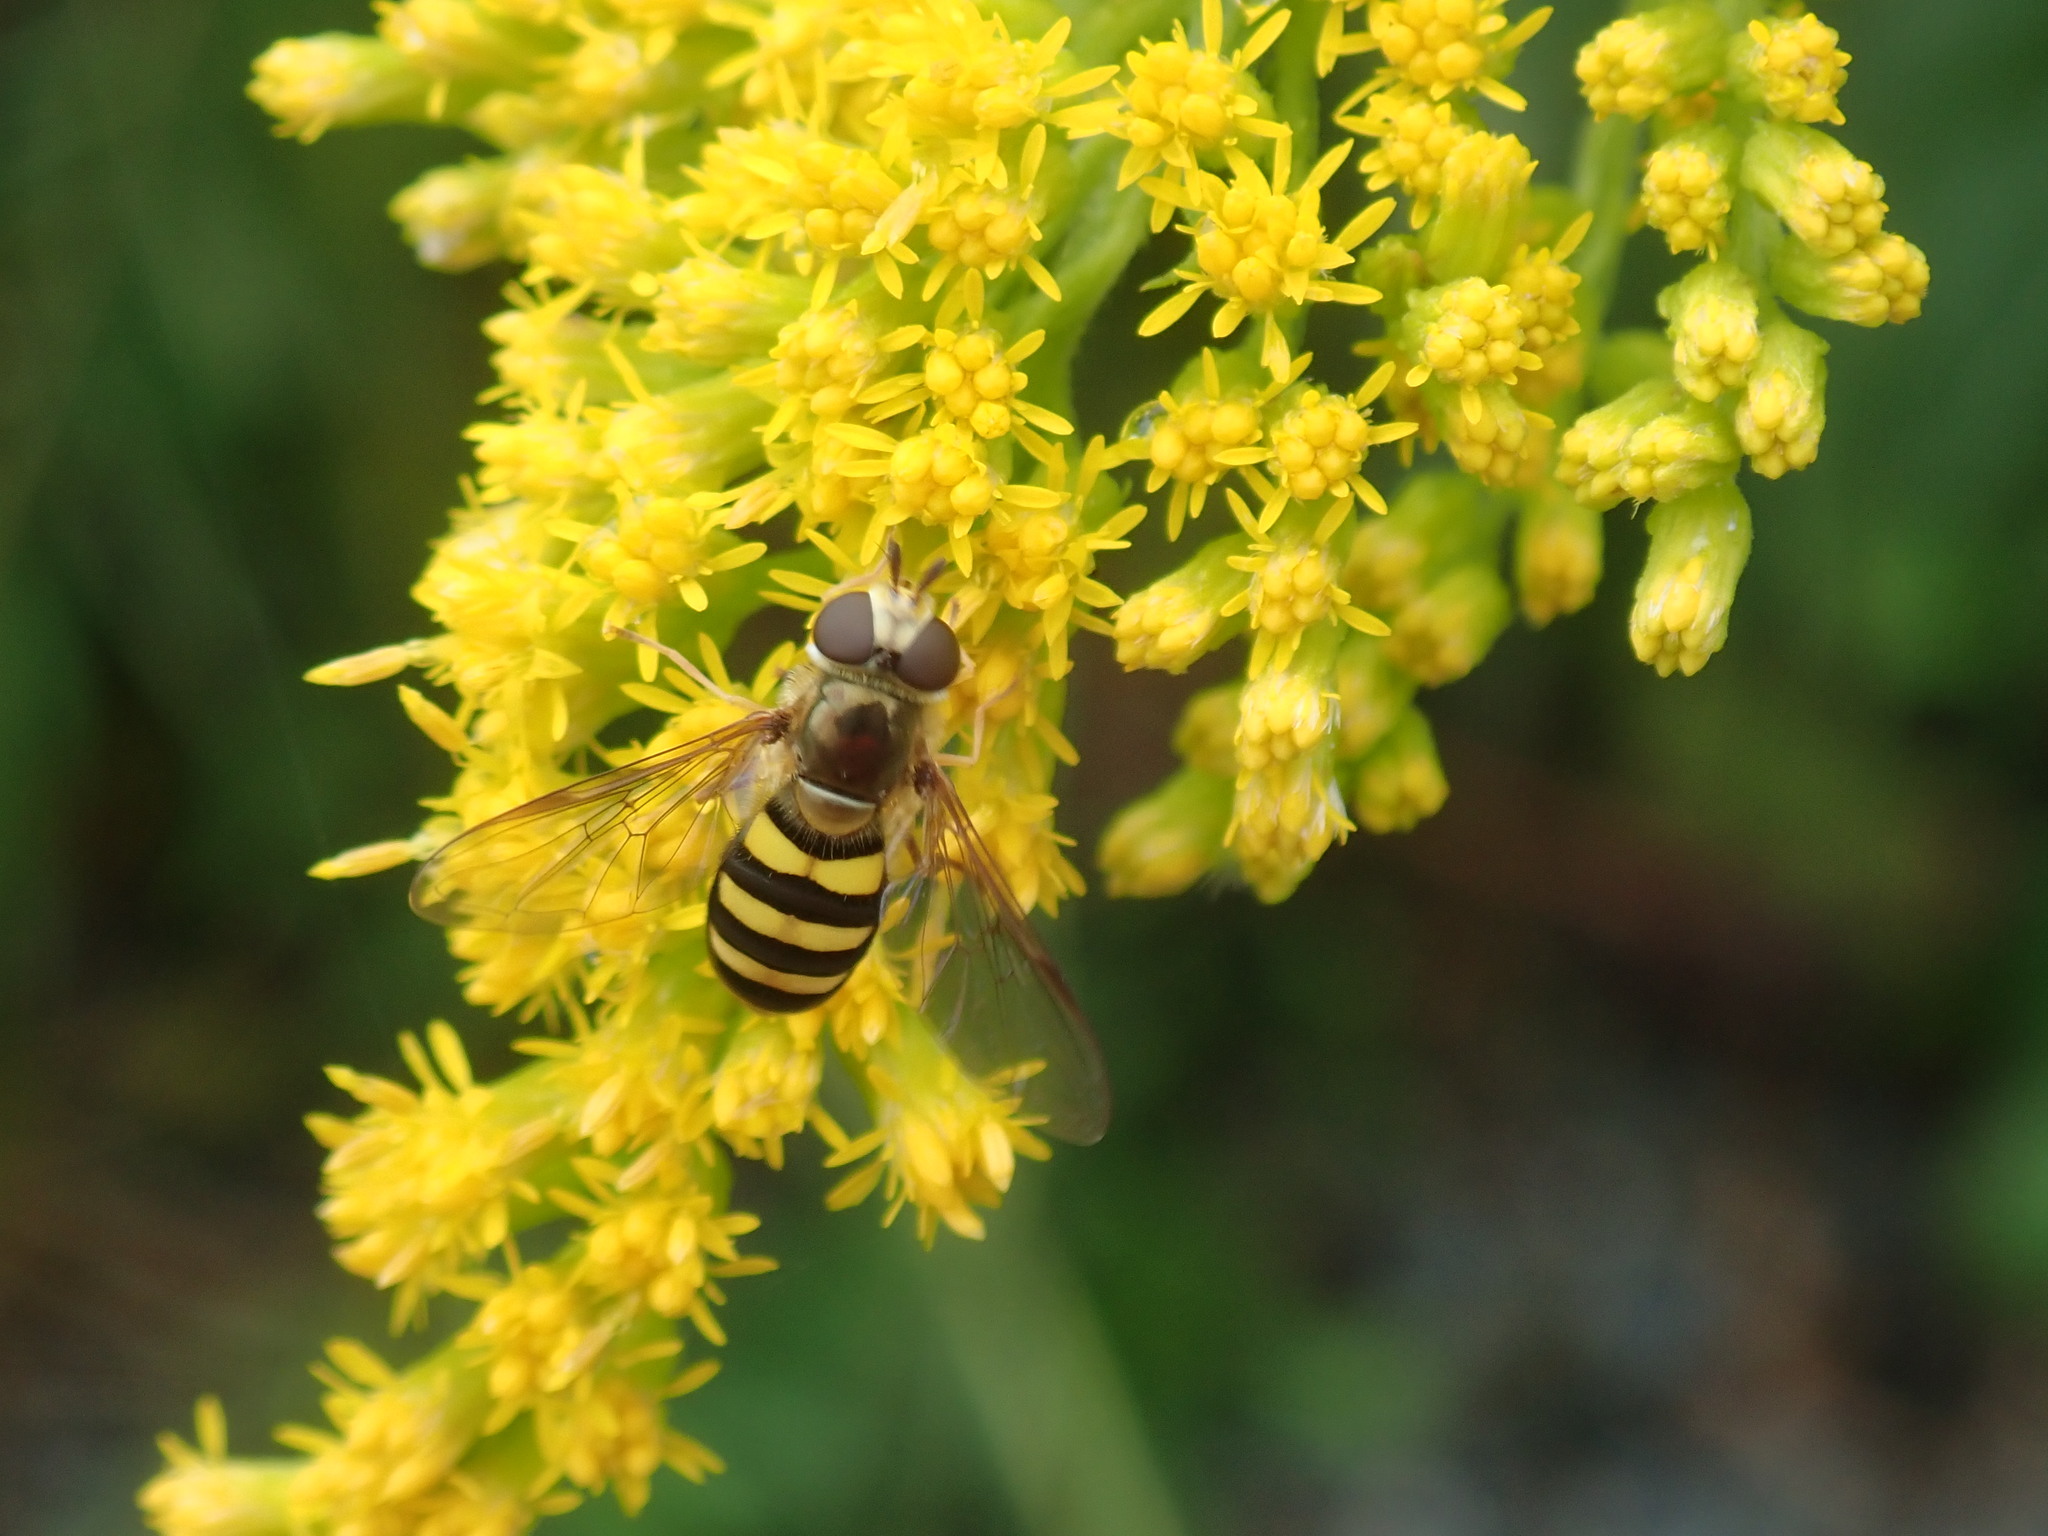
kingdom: Animalia
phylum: Arthropoda
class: Insecta
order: Diptera
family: Syrphidae
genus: Eupeodes
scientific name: Eupeodes
